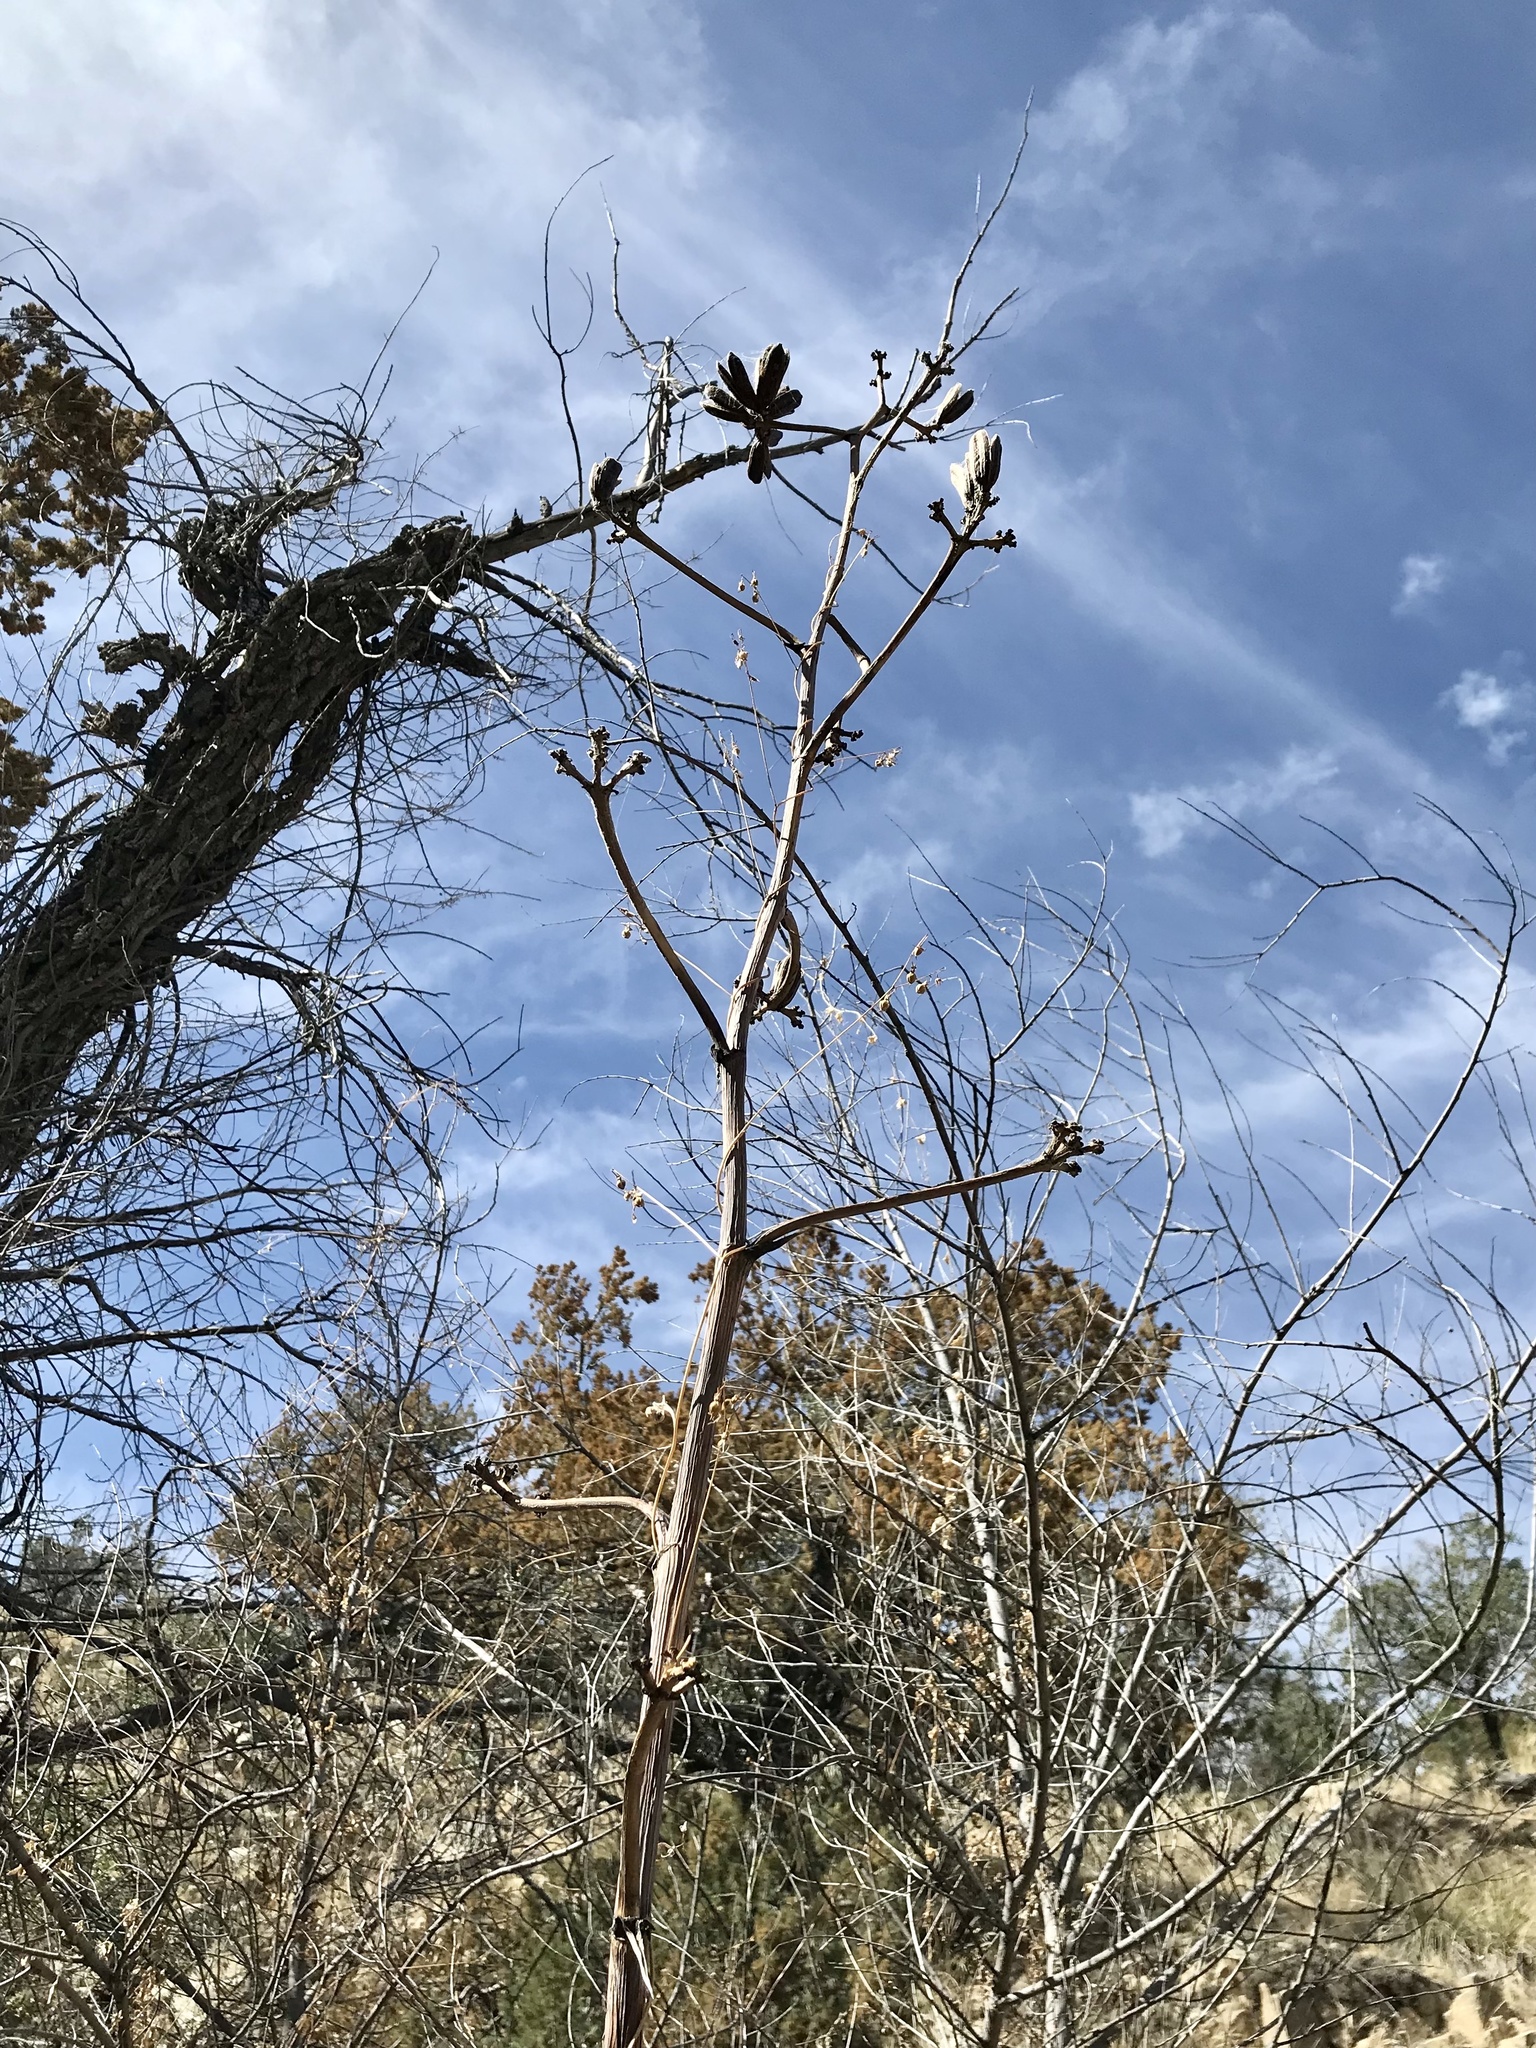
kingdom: Plantae
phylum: Tracheophyta
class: Liliopsida
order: Asparagales
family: Asparagaceae
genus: Agave
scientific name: Agave palmeri
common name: Palmer agave
